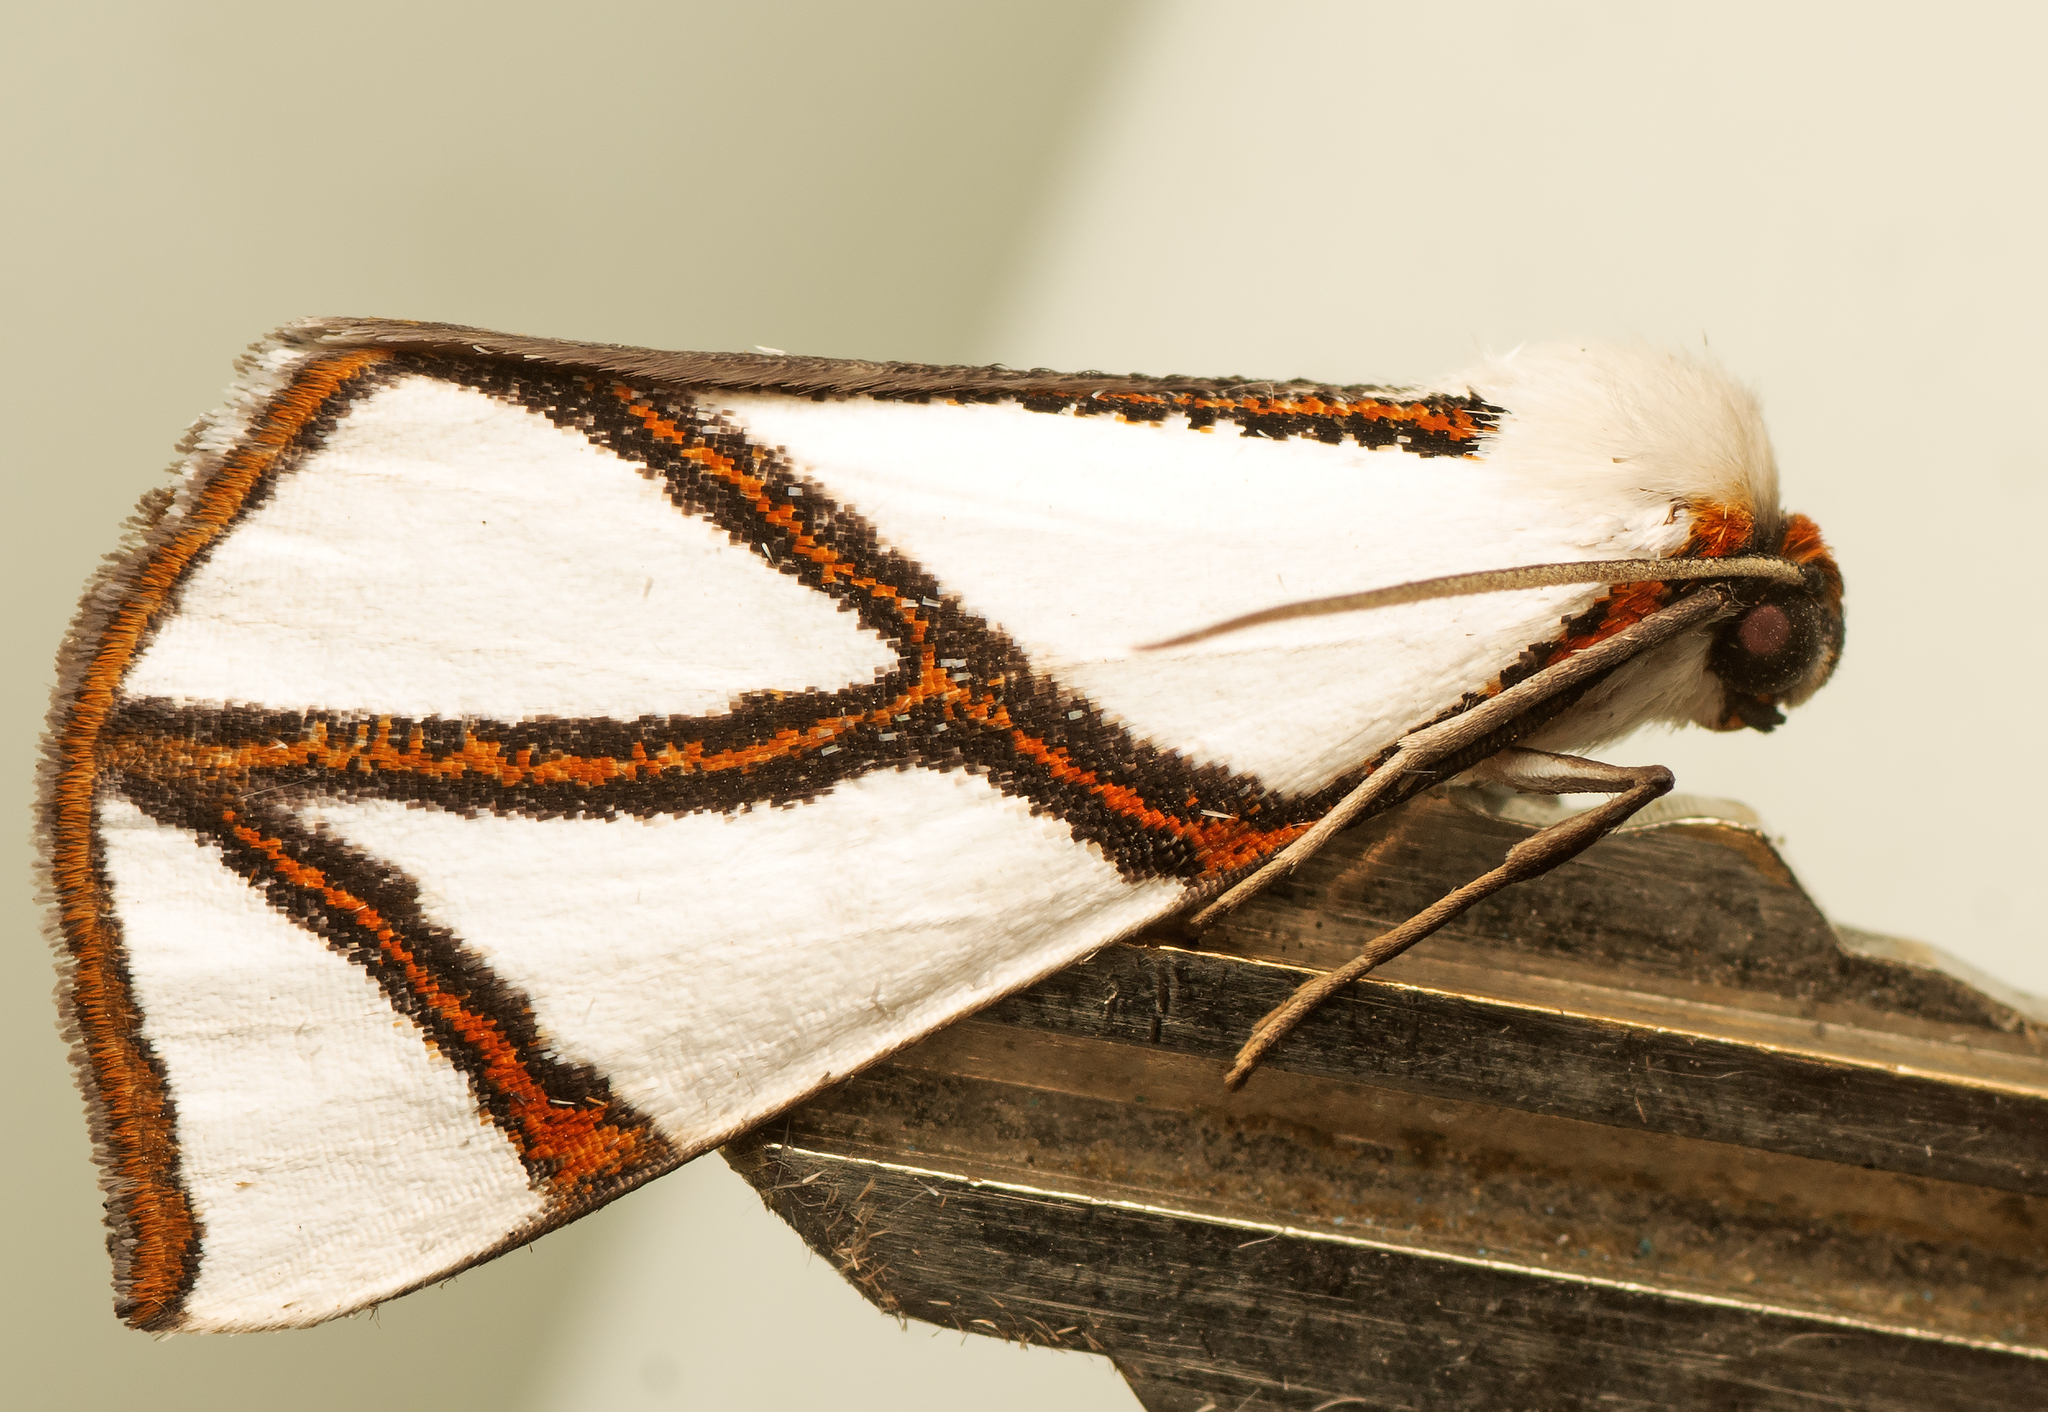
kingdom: Animalia
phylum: Arthropoda
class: Insecta
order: Lepidoptera
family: Geometridae
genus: Thalaina
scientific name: Thalaina clara
